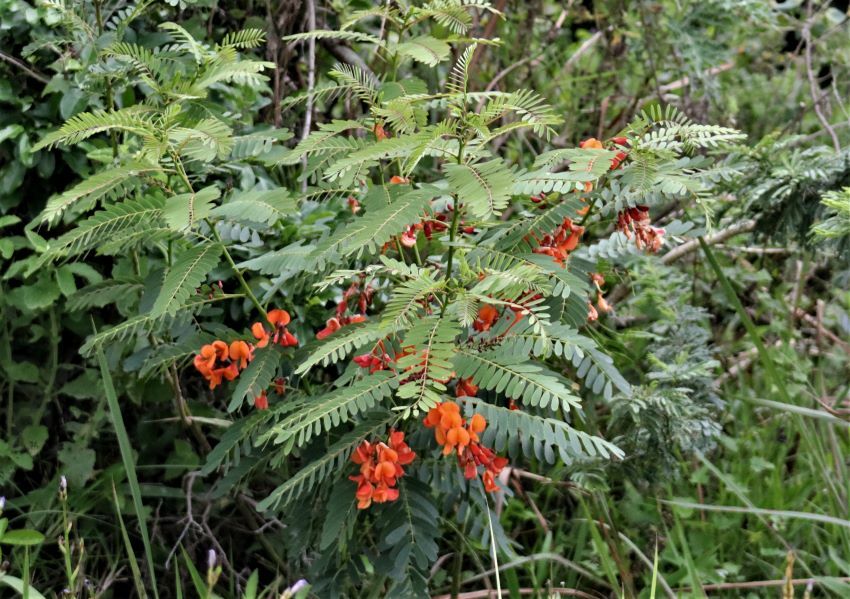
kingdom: Plantae
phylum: Tracheophyta
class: Magnoliopsida
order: Fabales
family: Fabaceae
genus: Sesbania
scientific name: Sesbania punicea
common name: Rattlebox
